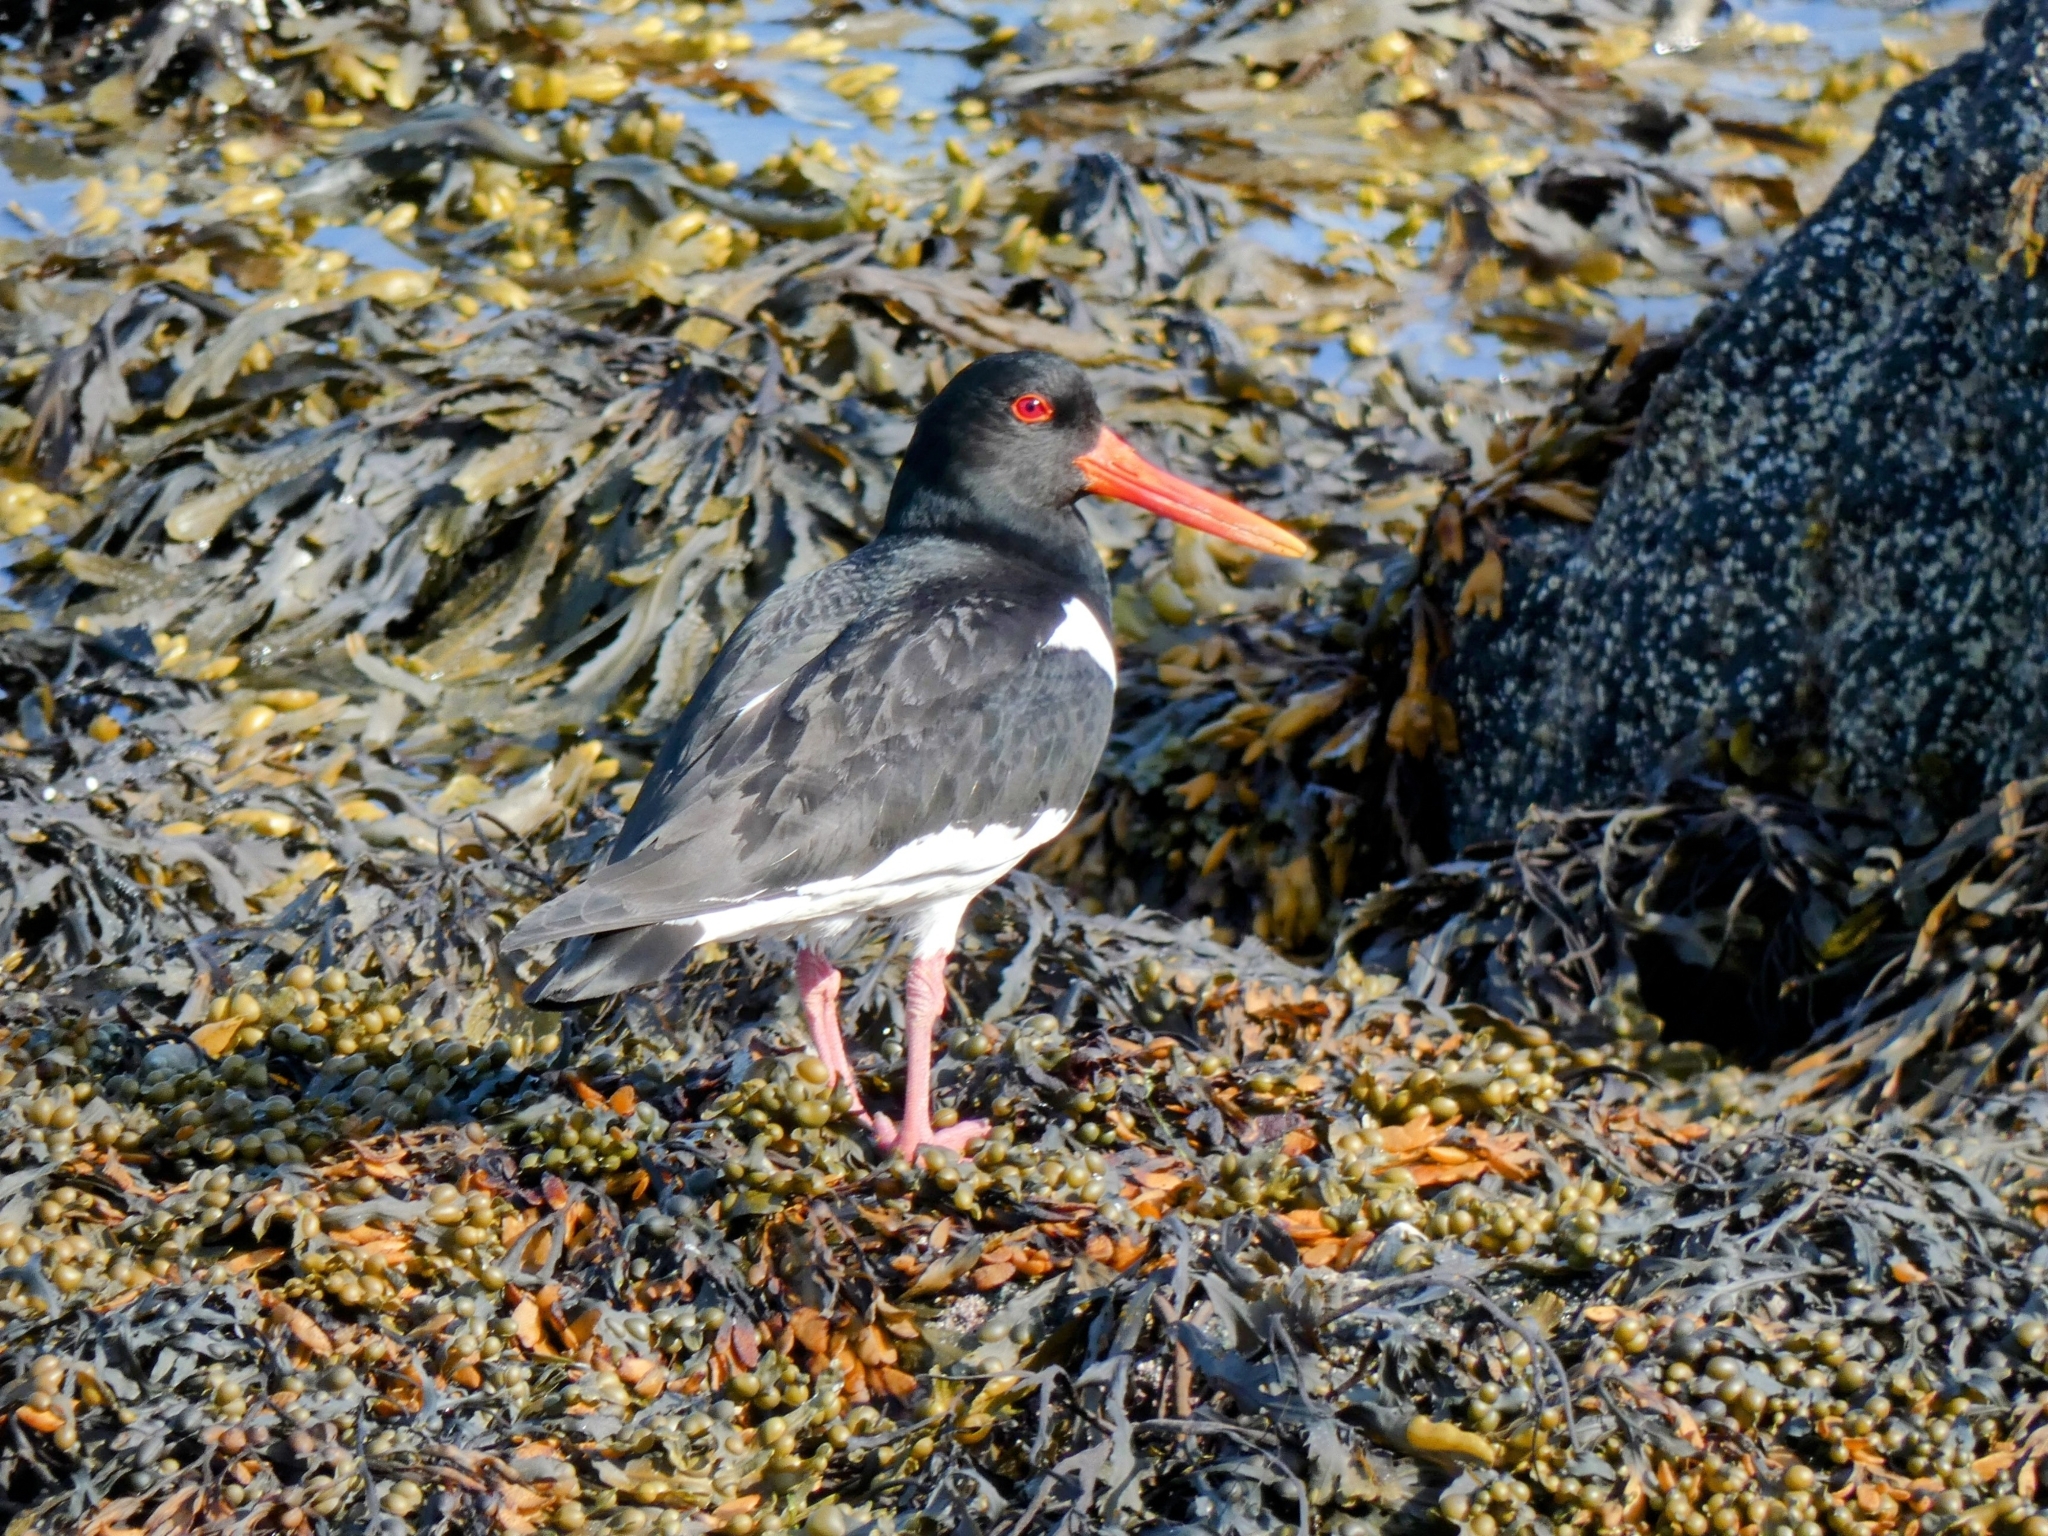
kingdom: Animalia
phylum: Chordata
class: Aves
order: Charadriiformes
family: Haematopodidae
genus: Haematopus
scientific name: Haematopus ostralegus
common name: Eurasian oystercatcher
